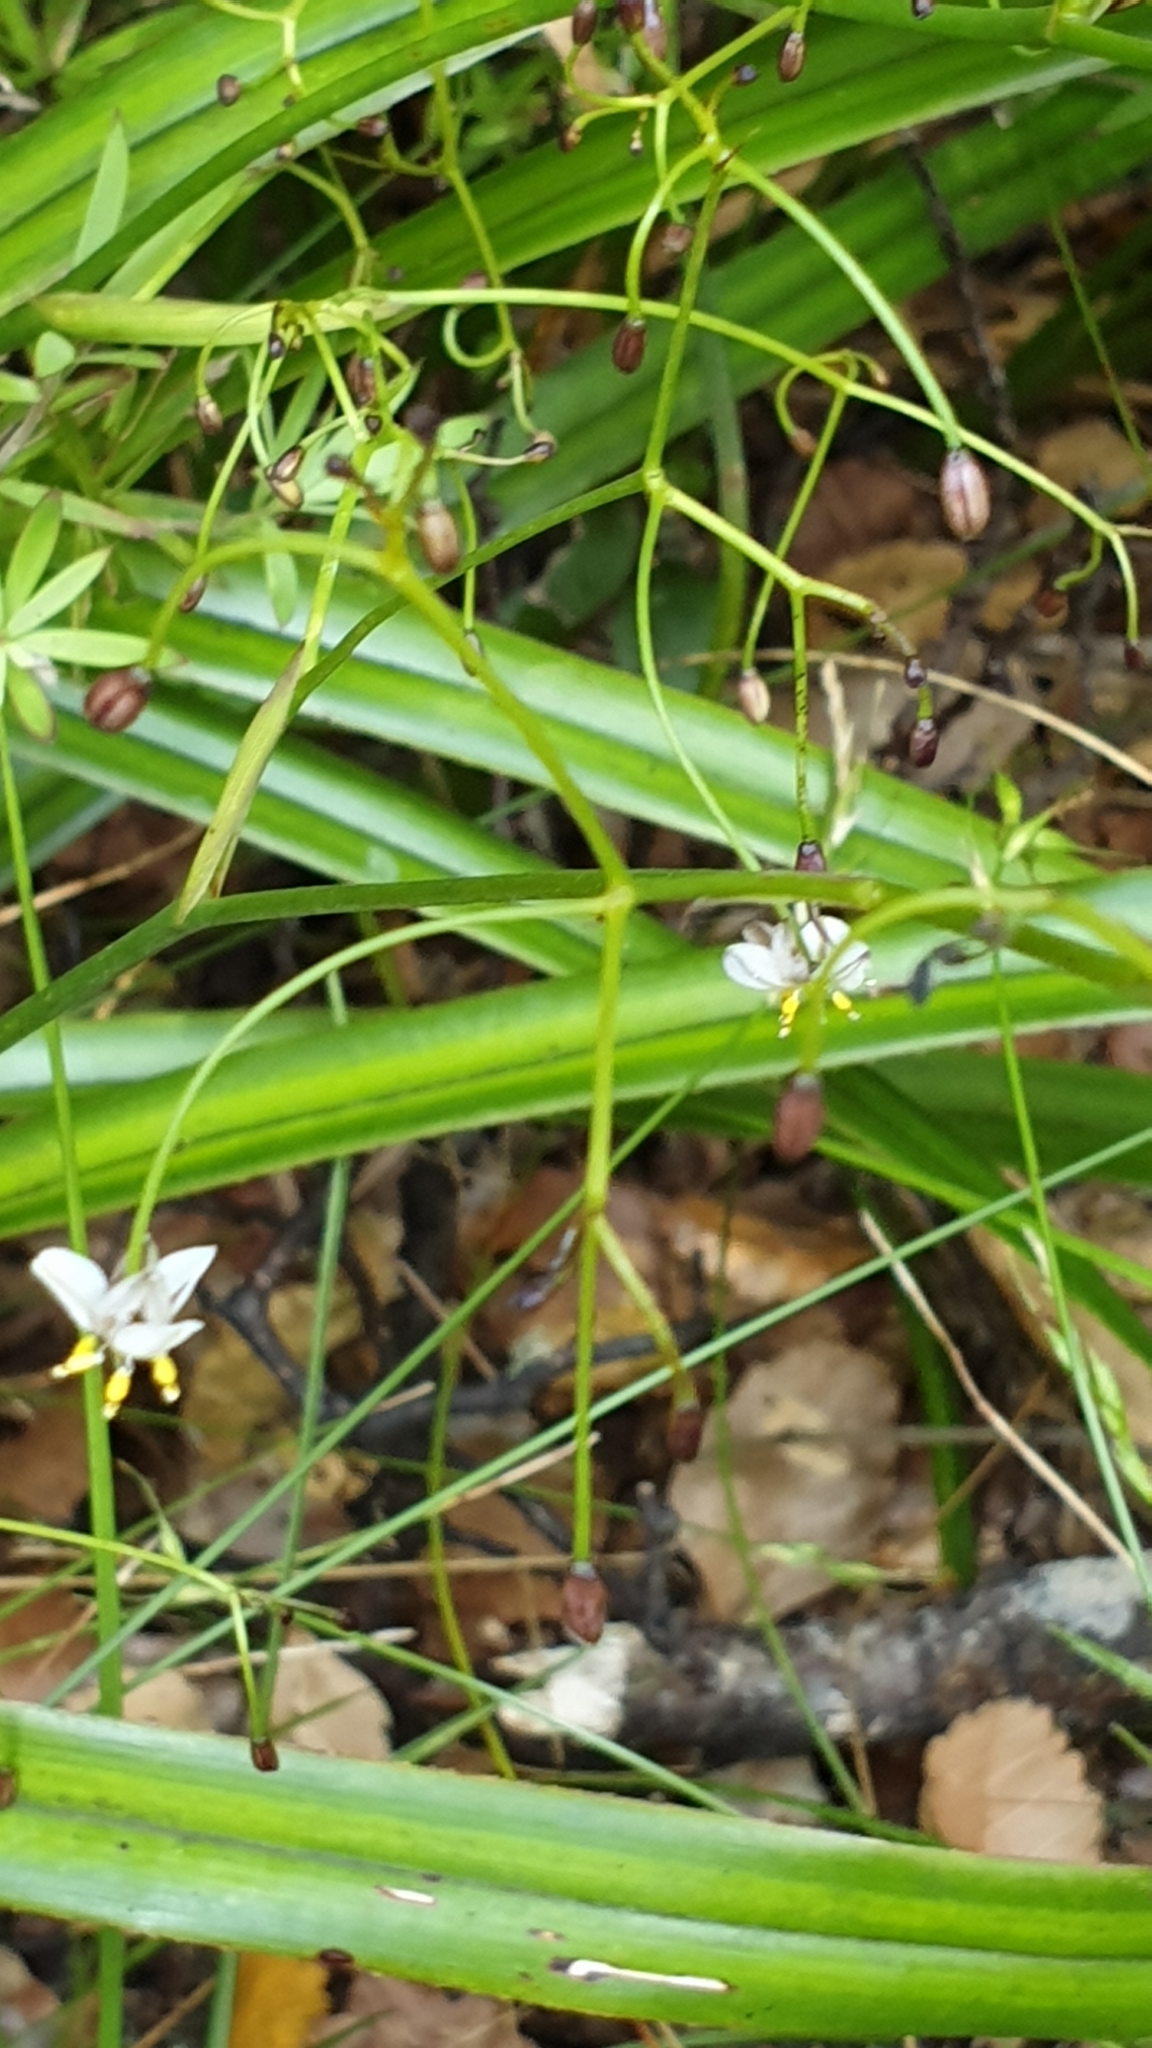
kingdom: Plantae
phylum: Tracheophyta
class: Liliopsida
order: Asparagales
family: Asphodelaceae
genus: Dianella
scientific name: Dianella nigra
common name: New zealand-blueberry
